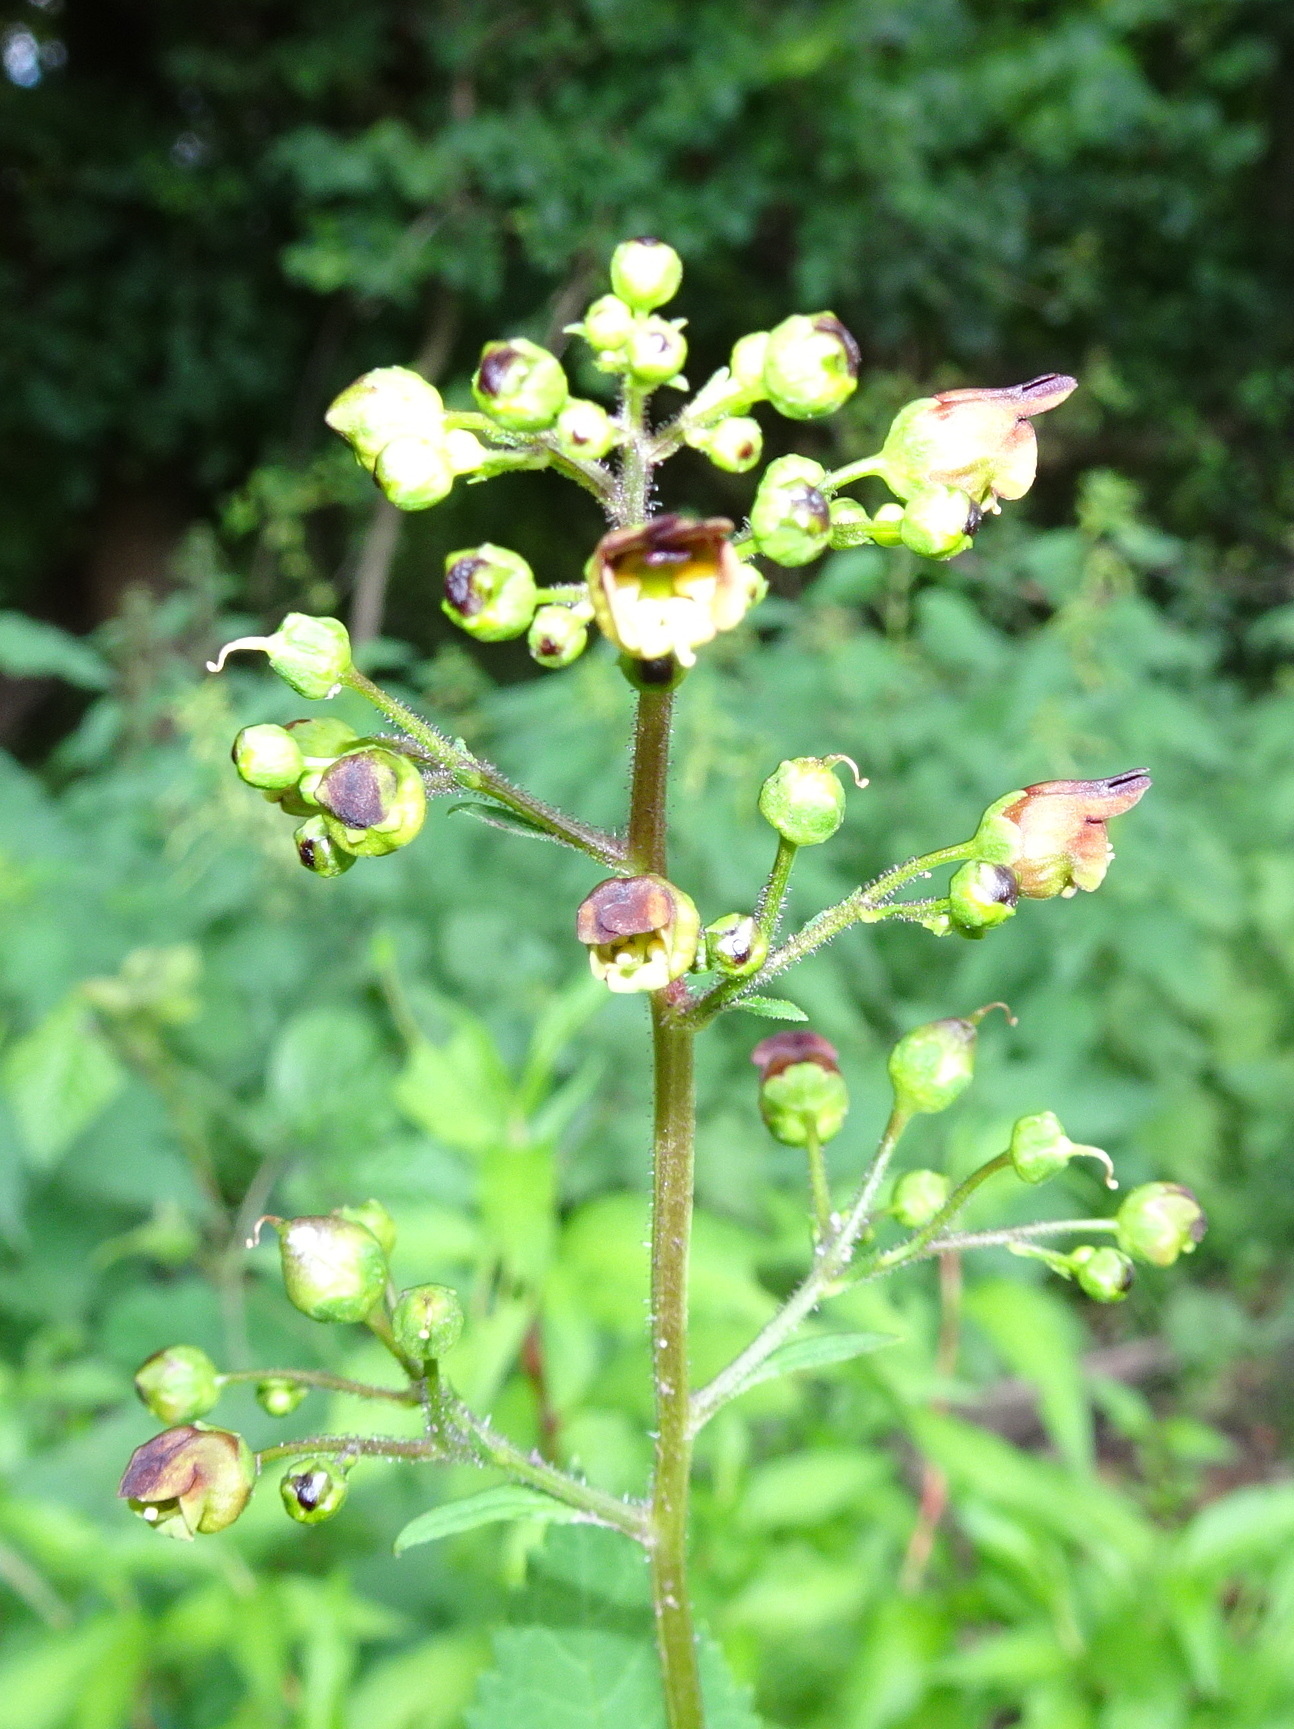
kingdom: Plantae
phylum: Tracheophyta
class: Magnoliopsida
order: Lamiales
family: Scrophulariaceae
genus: Scrophularia
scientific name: Scrophularia nodosa
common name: Common figwort
